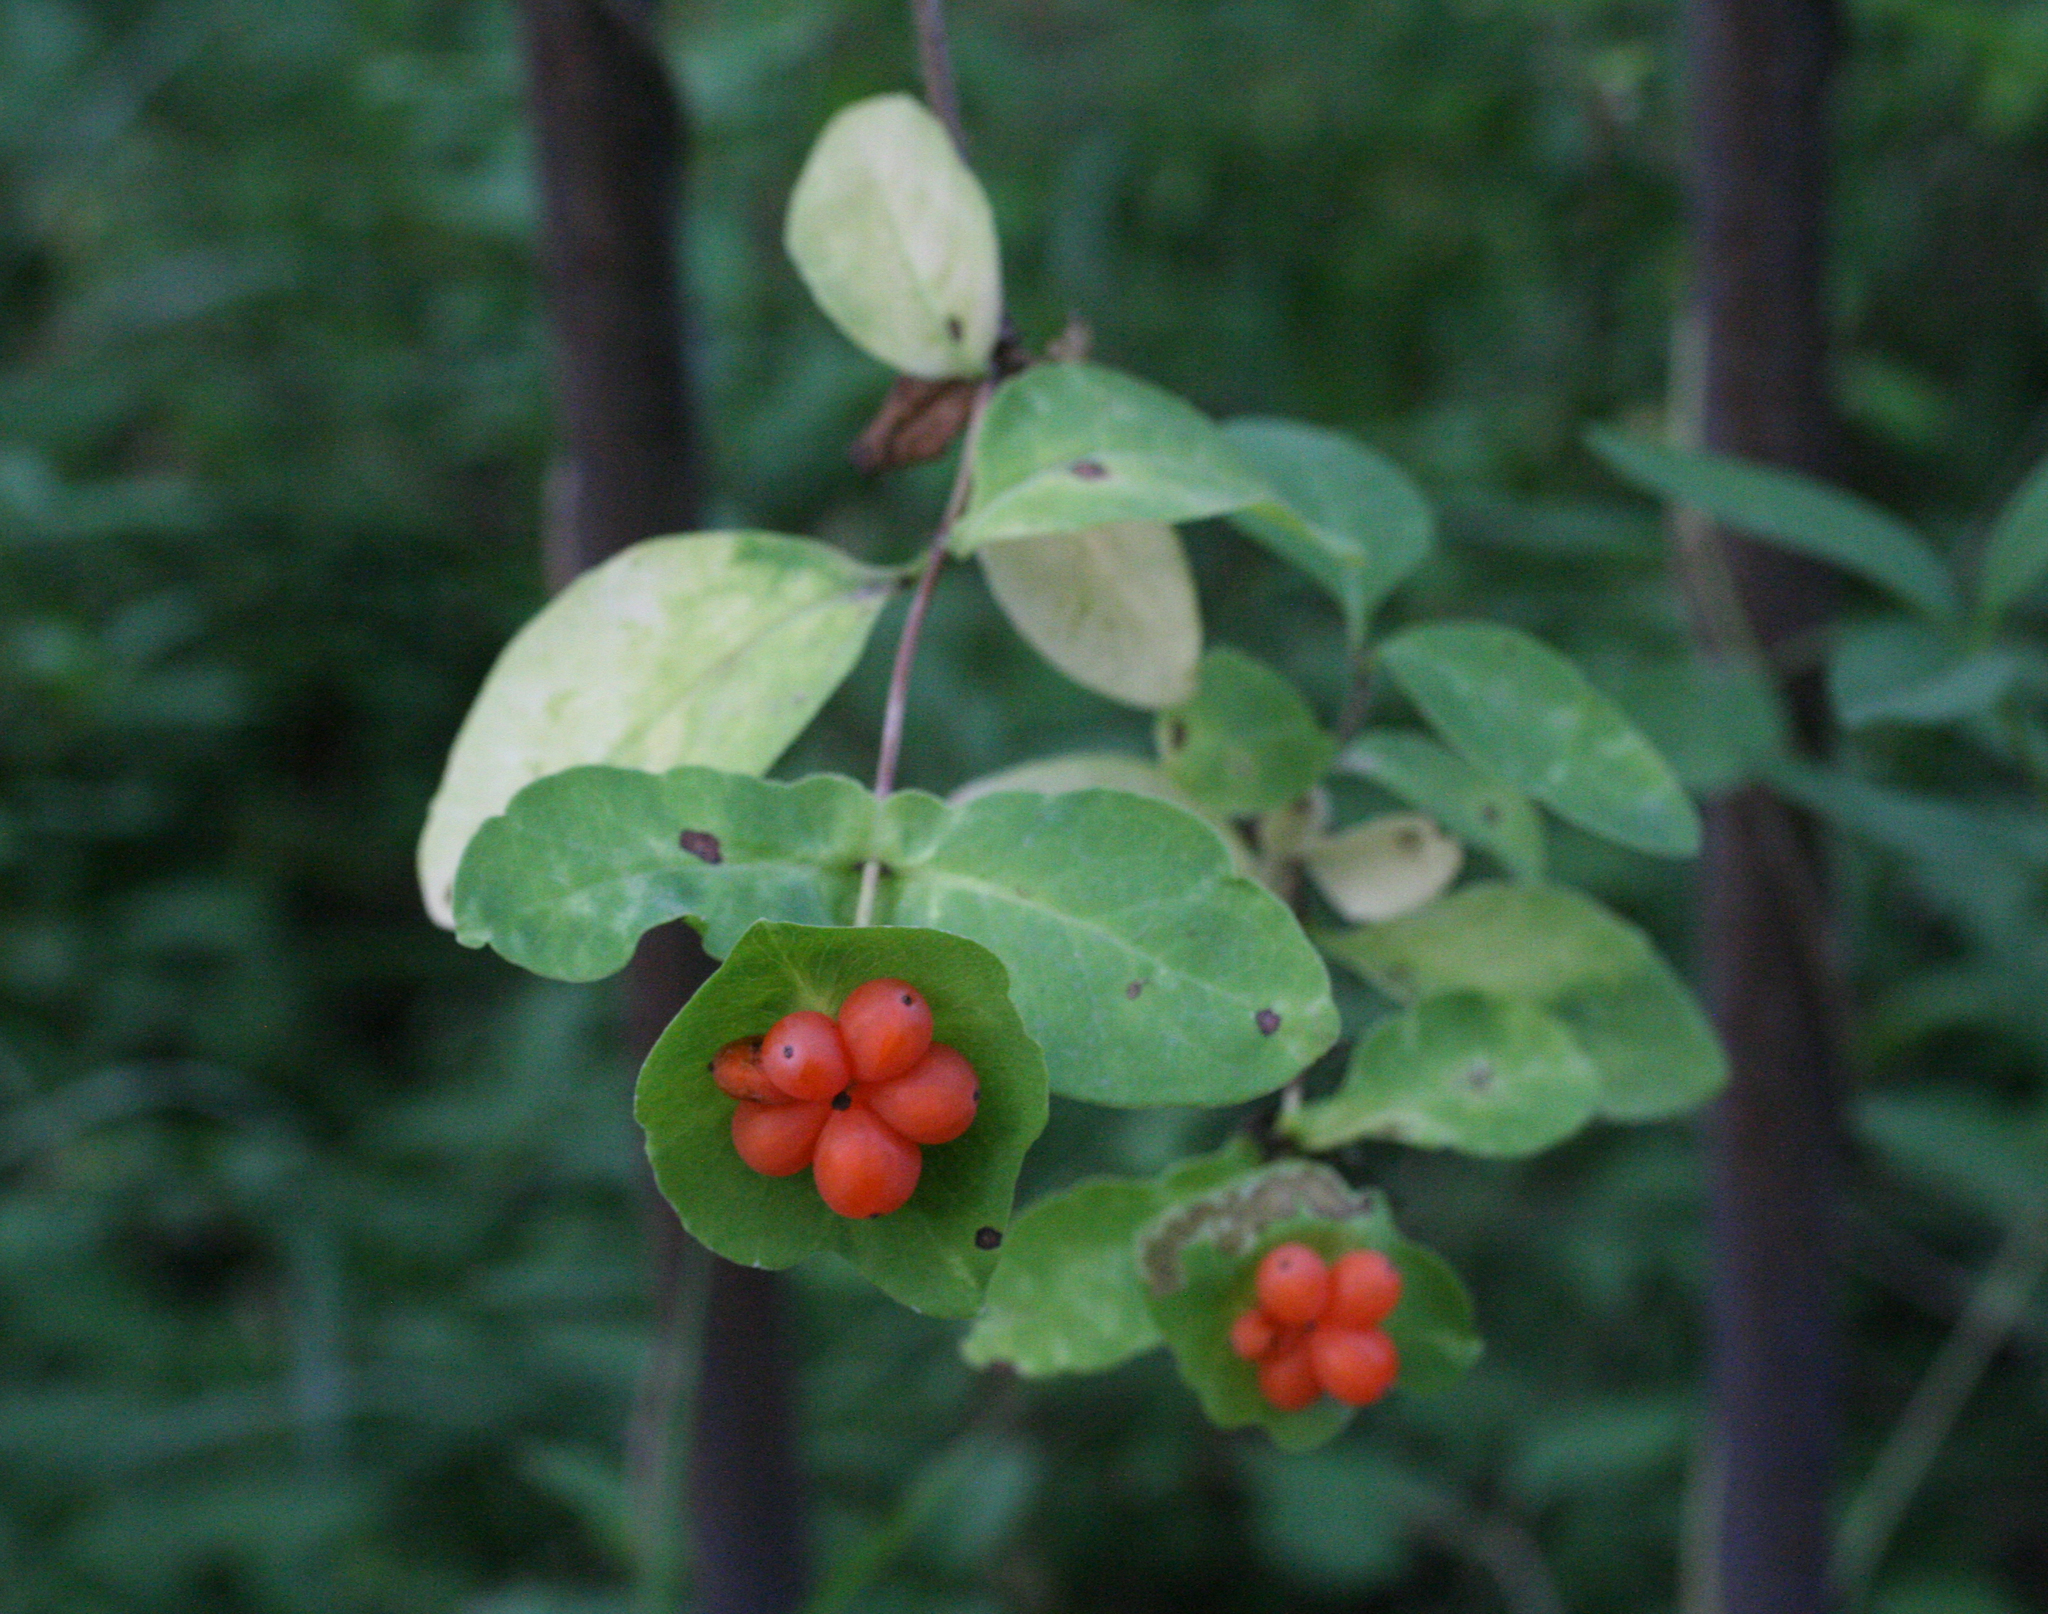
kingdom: Plantae
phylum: Tracheophyta
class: Magnoliopsida
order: Dipsacales
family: Caprifoliaceae
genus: Lonicera
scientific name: Lonicera caprifolium
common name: Perfoliate honeysuckle
